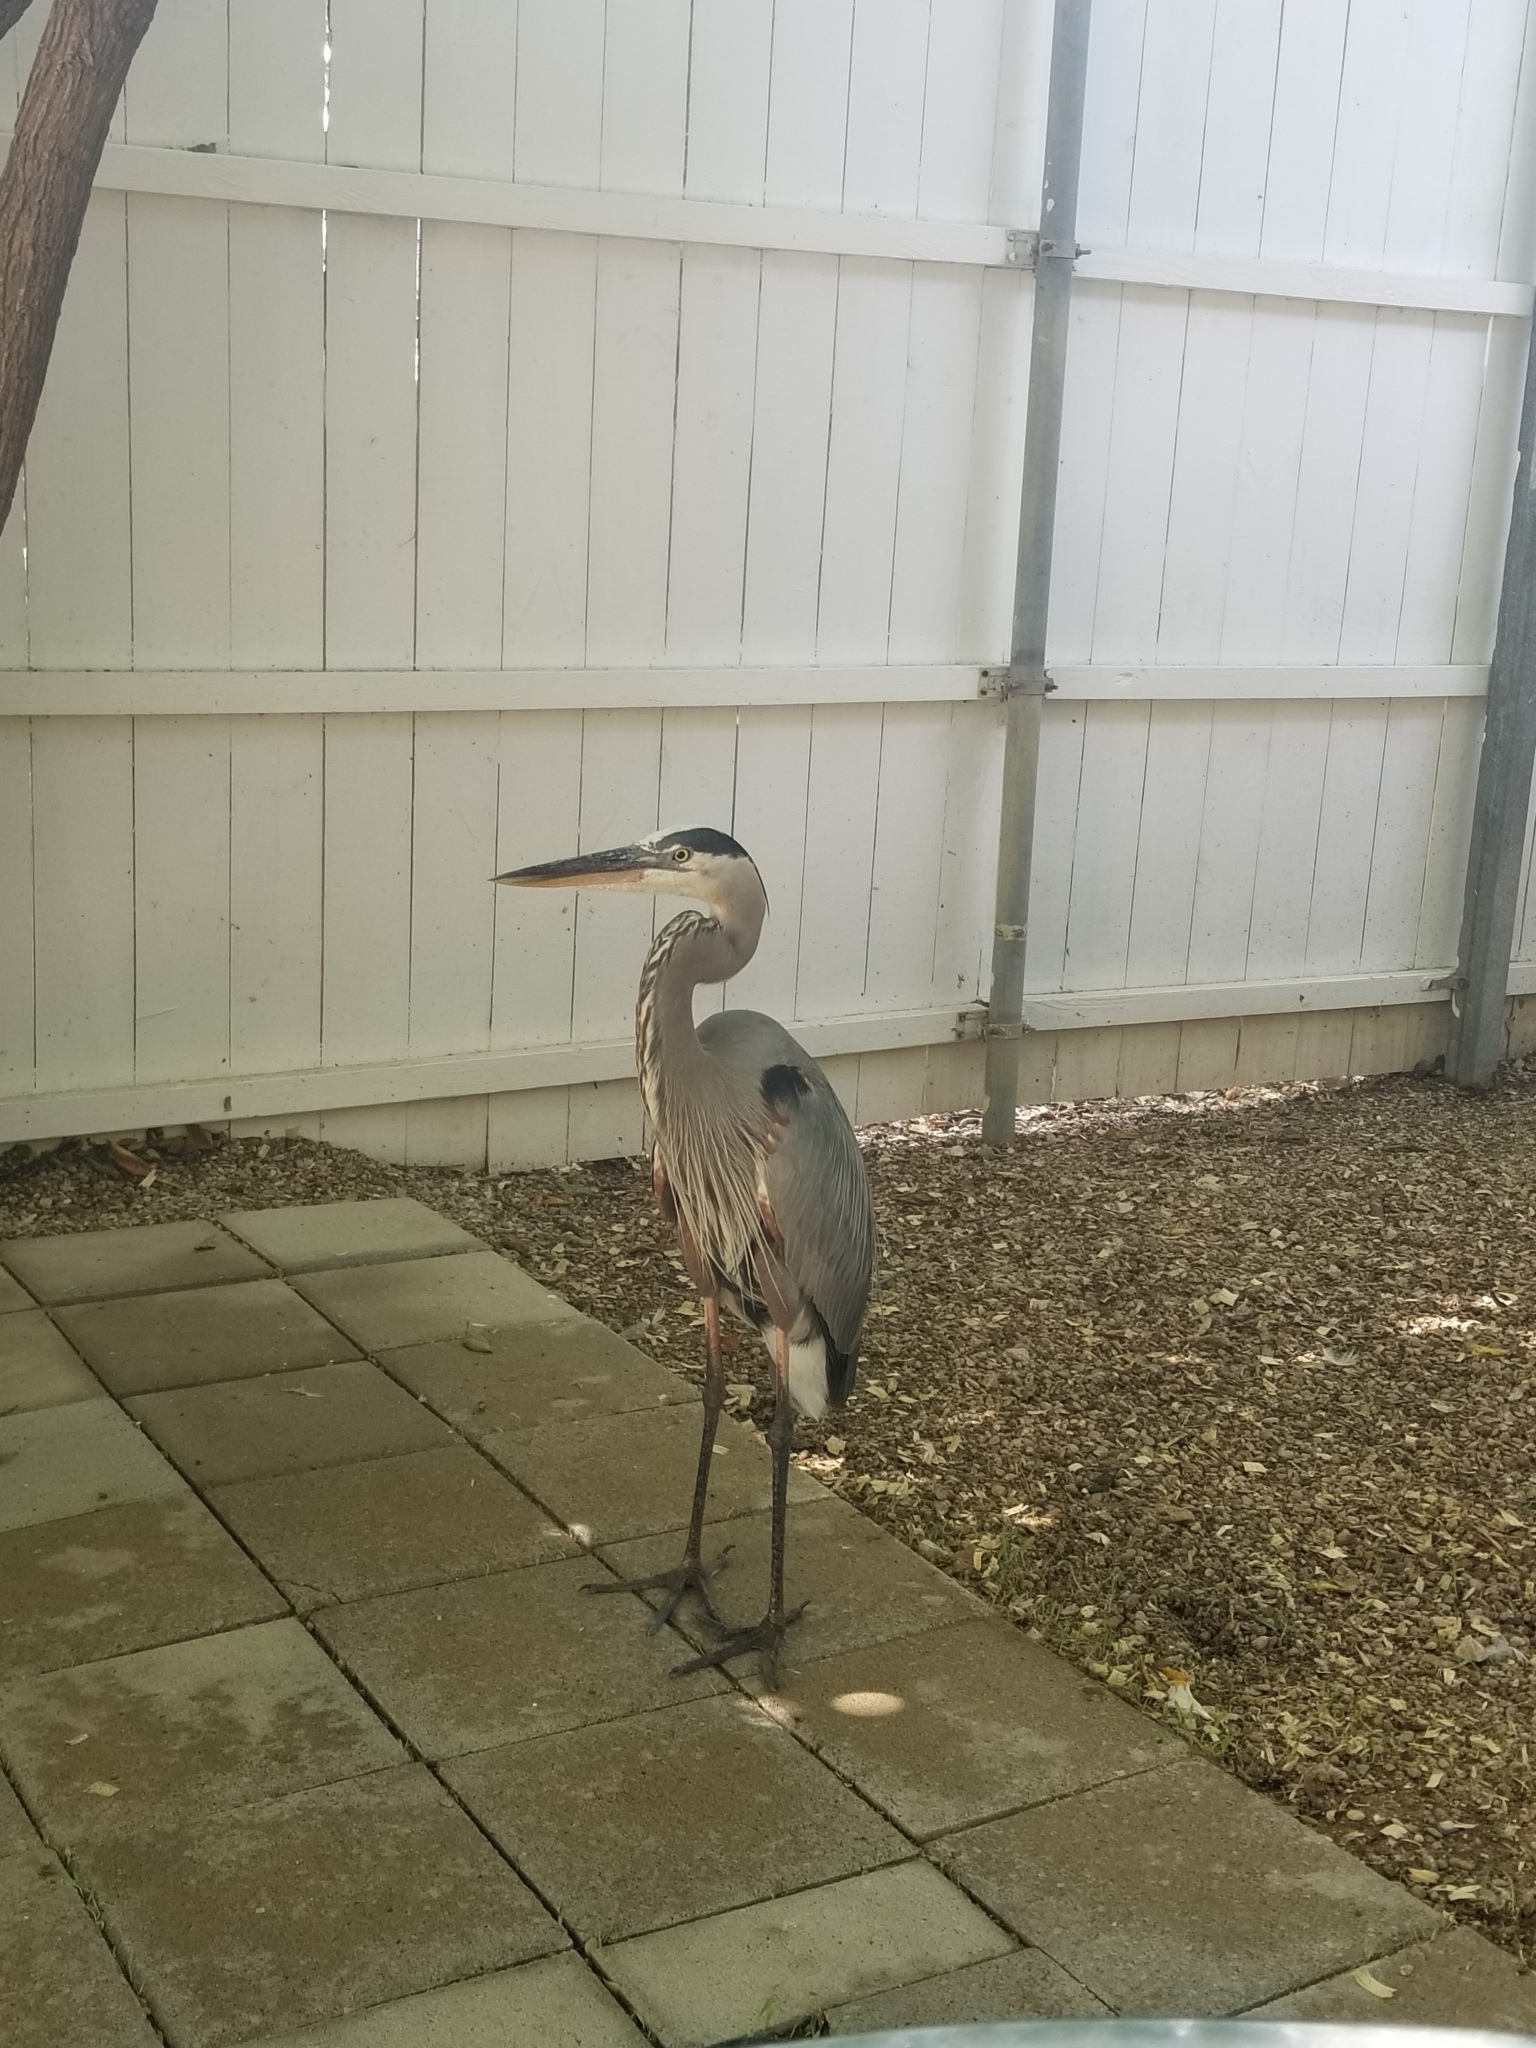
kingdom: Animalia
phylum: Chordata
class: Aves
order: Pelecaniformes
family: Ardeidae
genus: Ardea
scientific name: Ardea herodias
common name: Great blue heron
